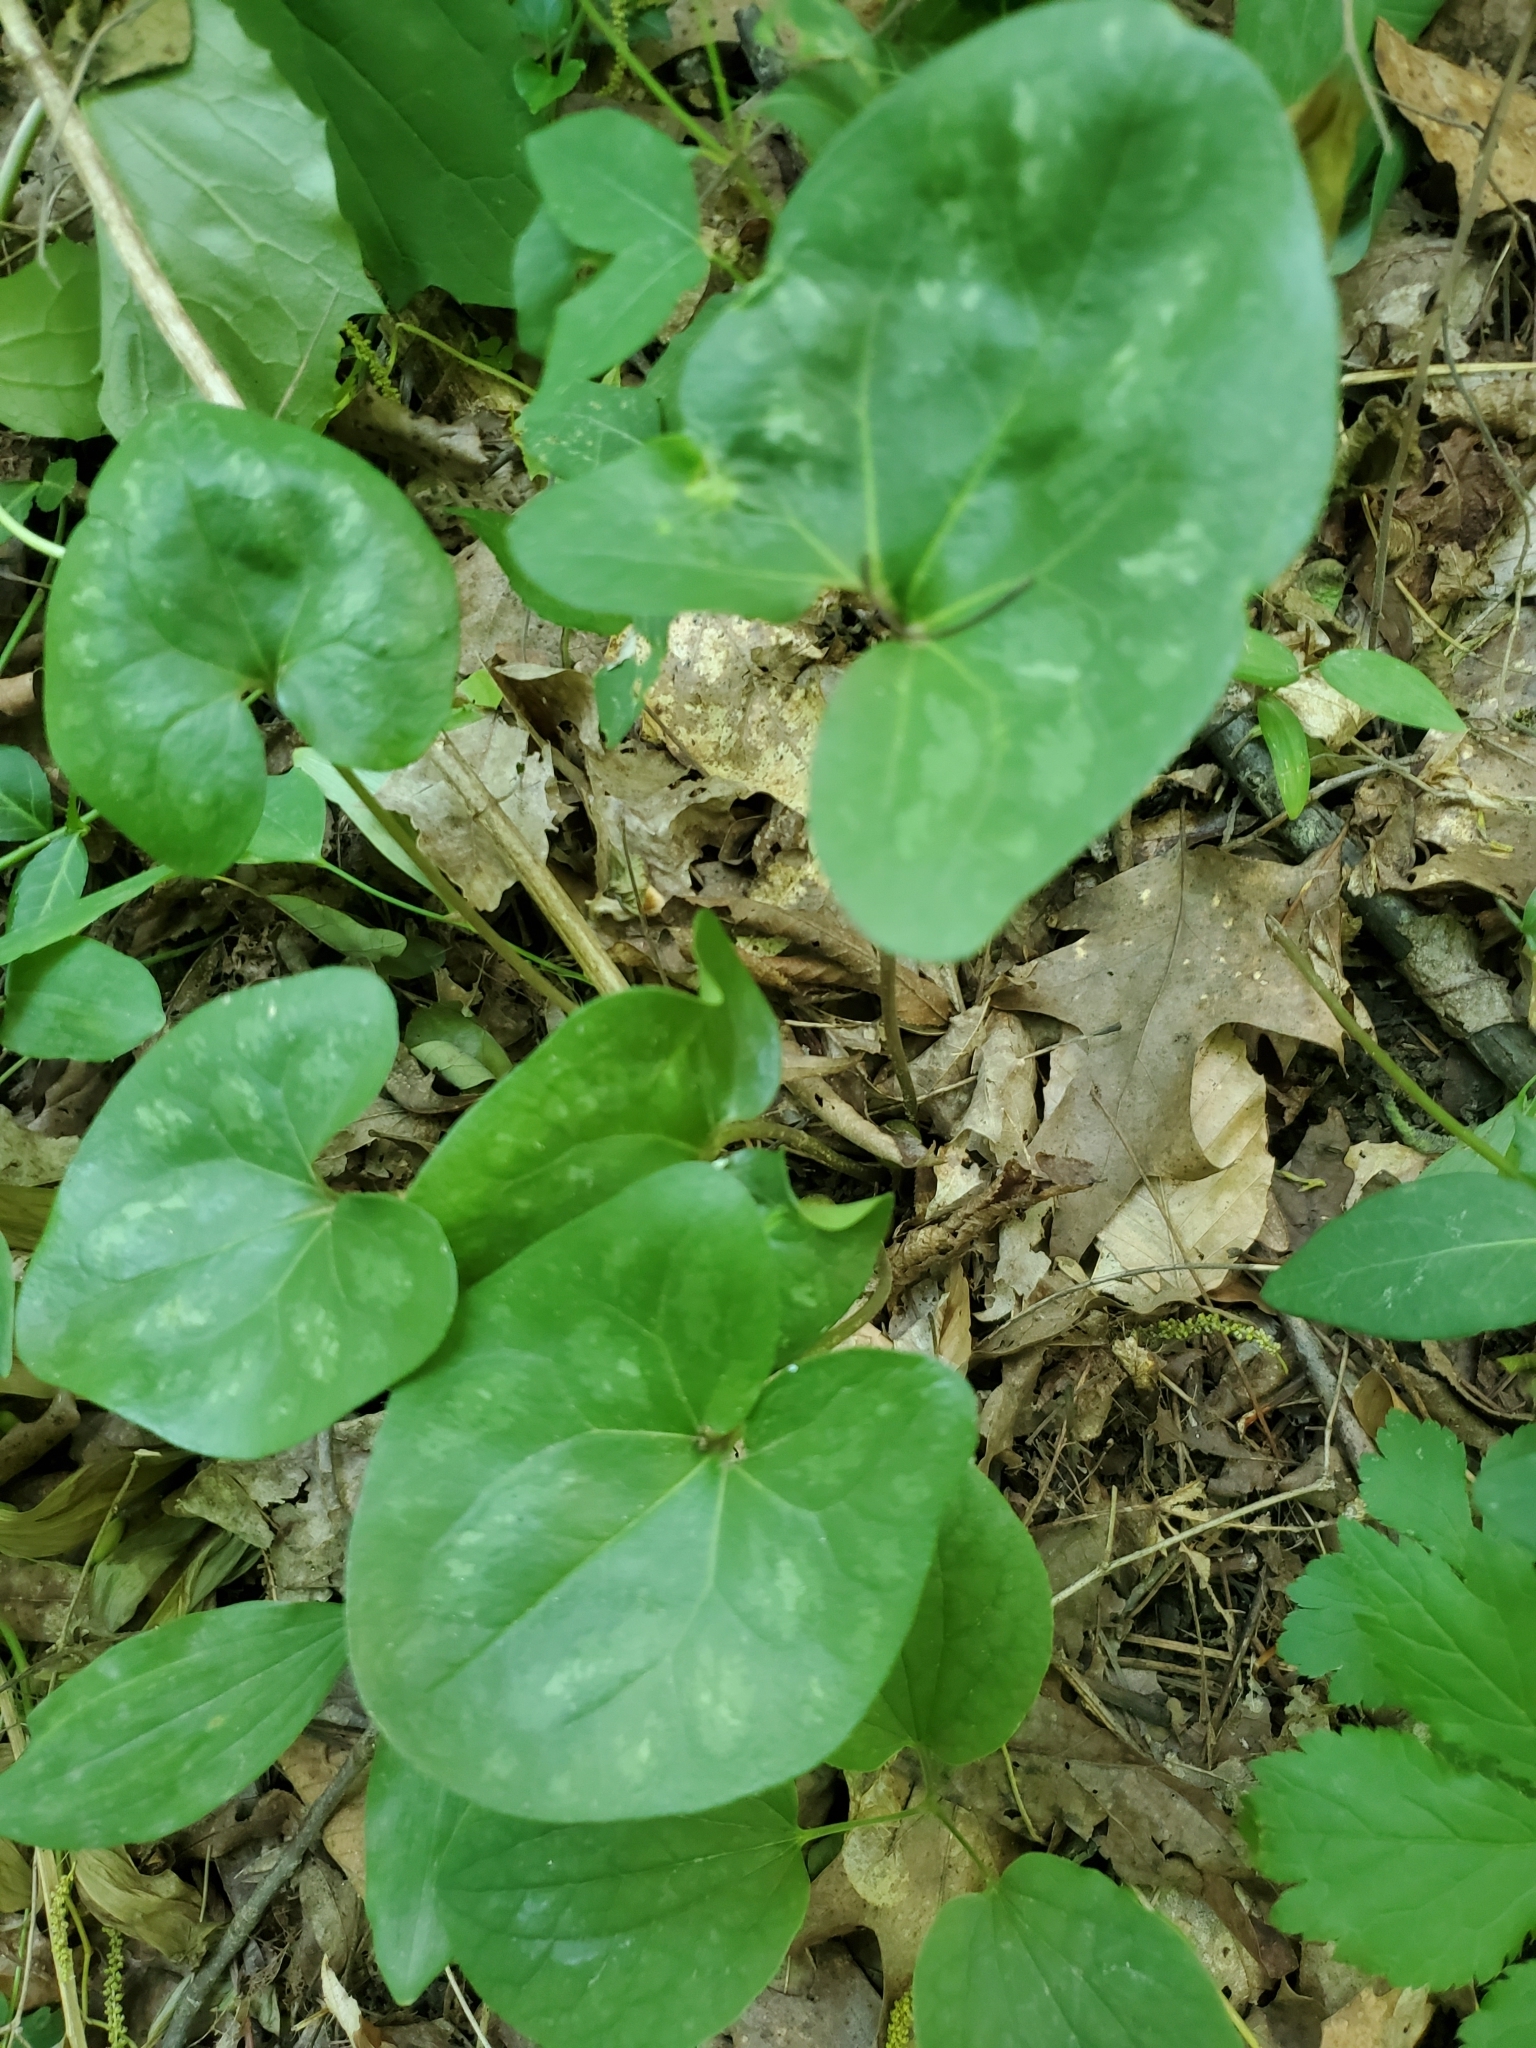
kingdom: Plantae
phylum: Tracheophyta
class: Magnoliopsida
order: Piperales
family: Aristolochiaceae
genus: Hexastylis
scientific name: Hexastylis arifolia
